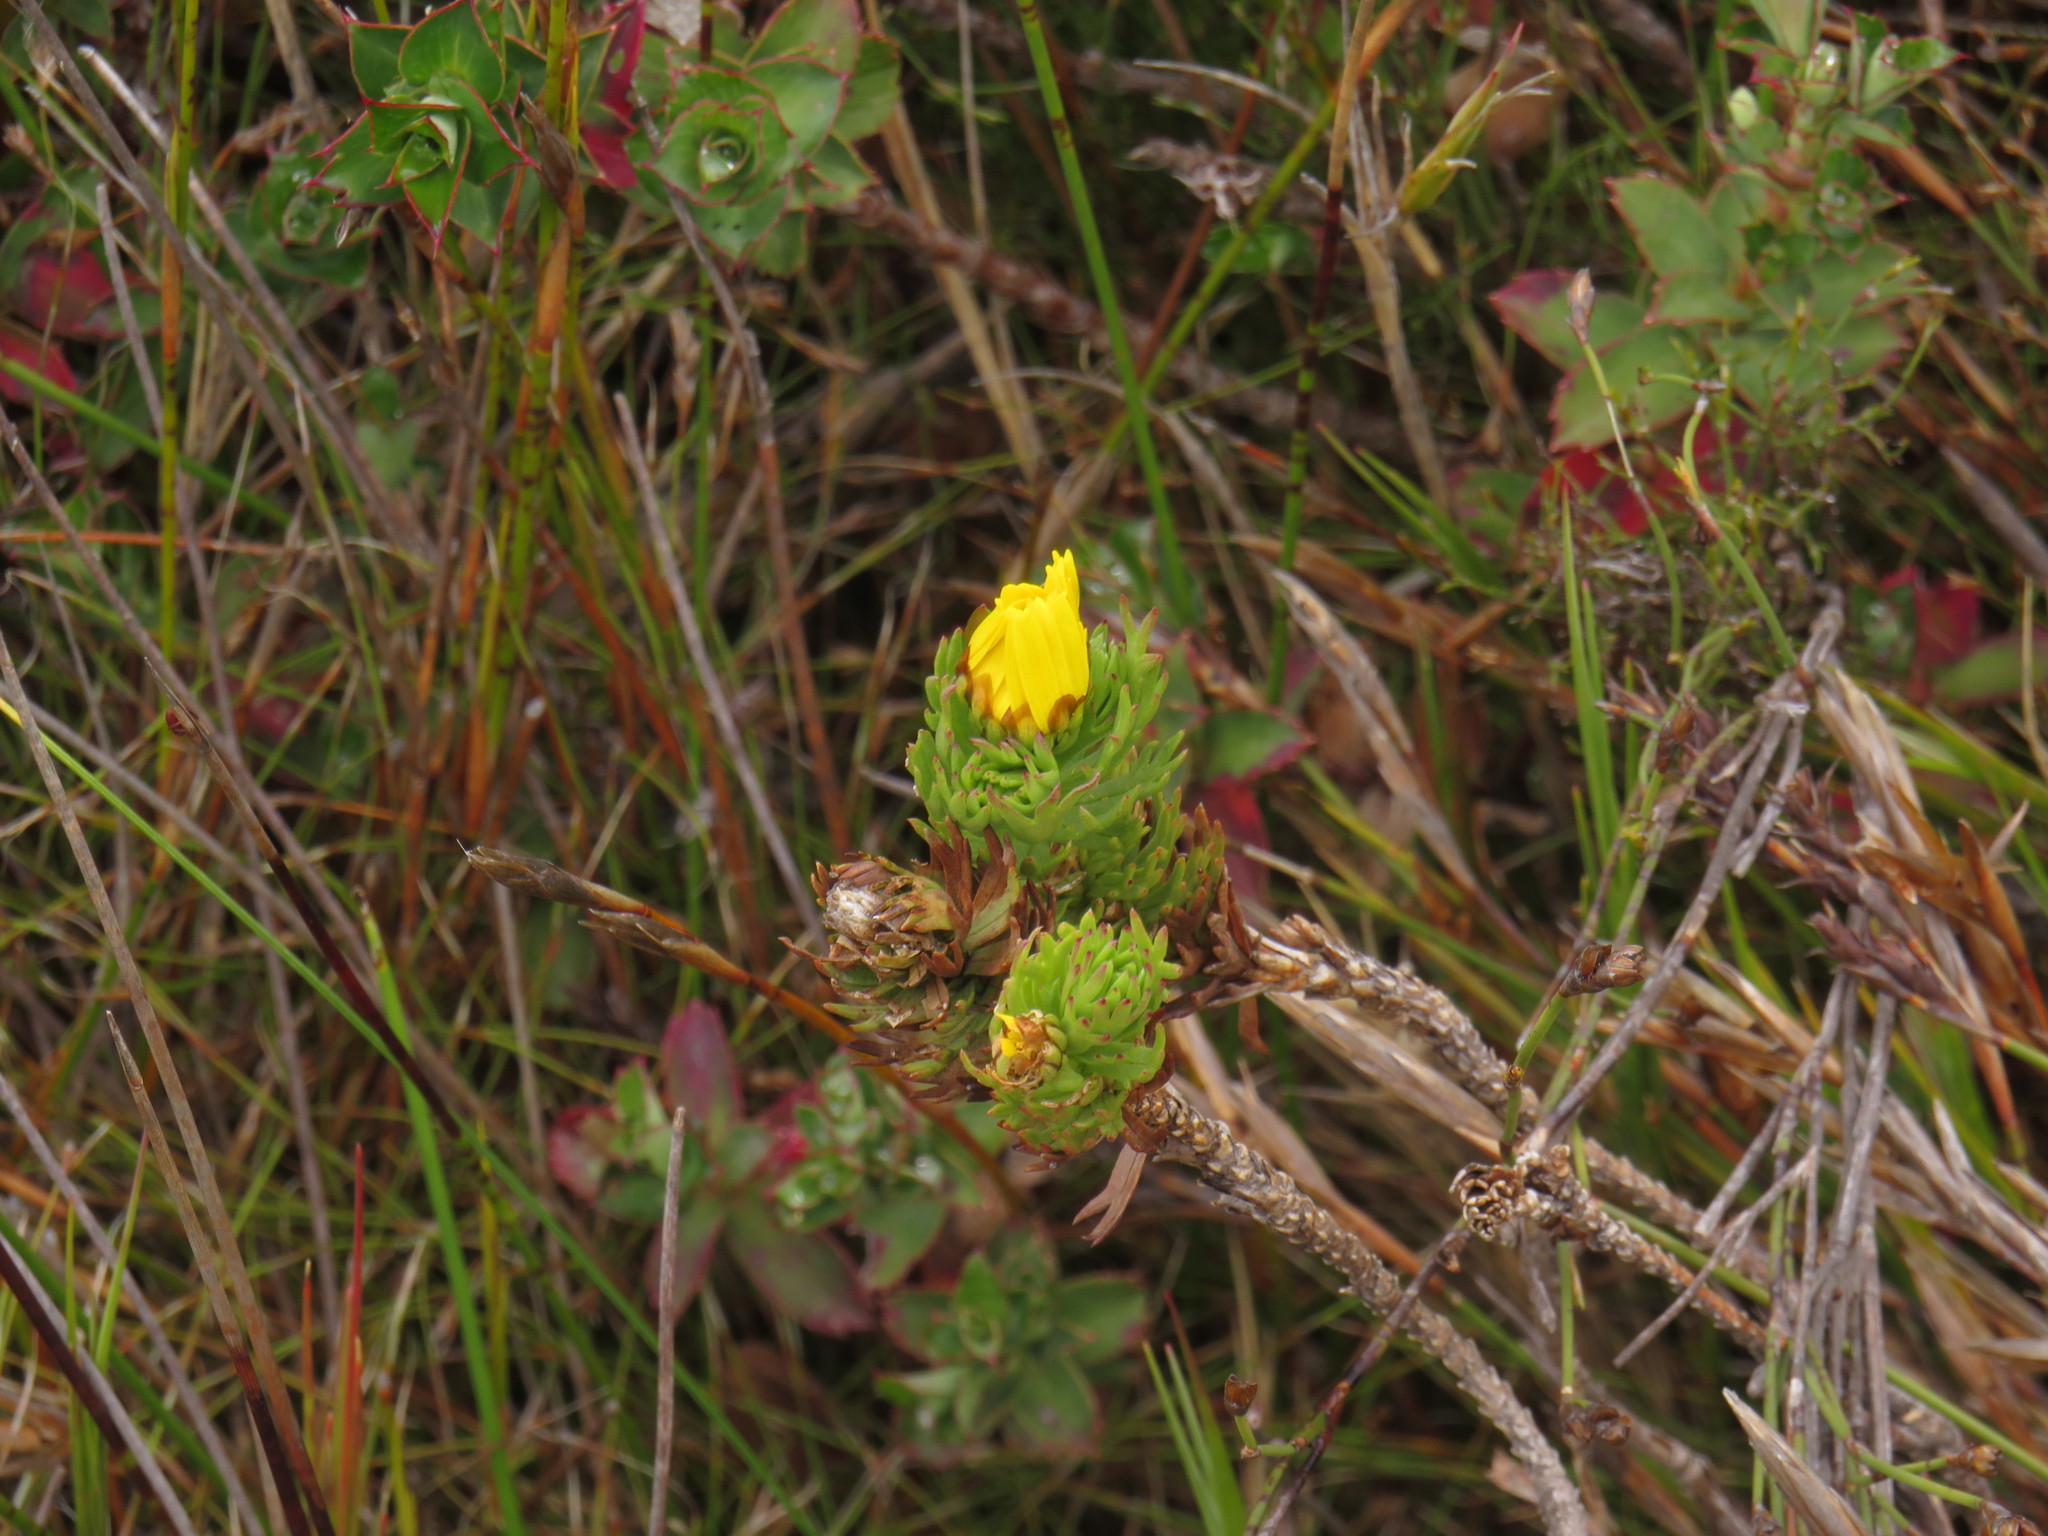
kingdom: Plantae
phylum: Tracheophyta
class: Magnoliopsida
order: Asterales
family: Asteraceae
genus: Ursinia
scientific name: Ursinia caledonica
